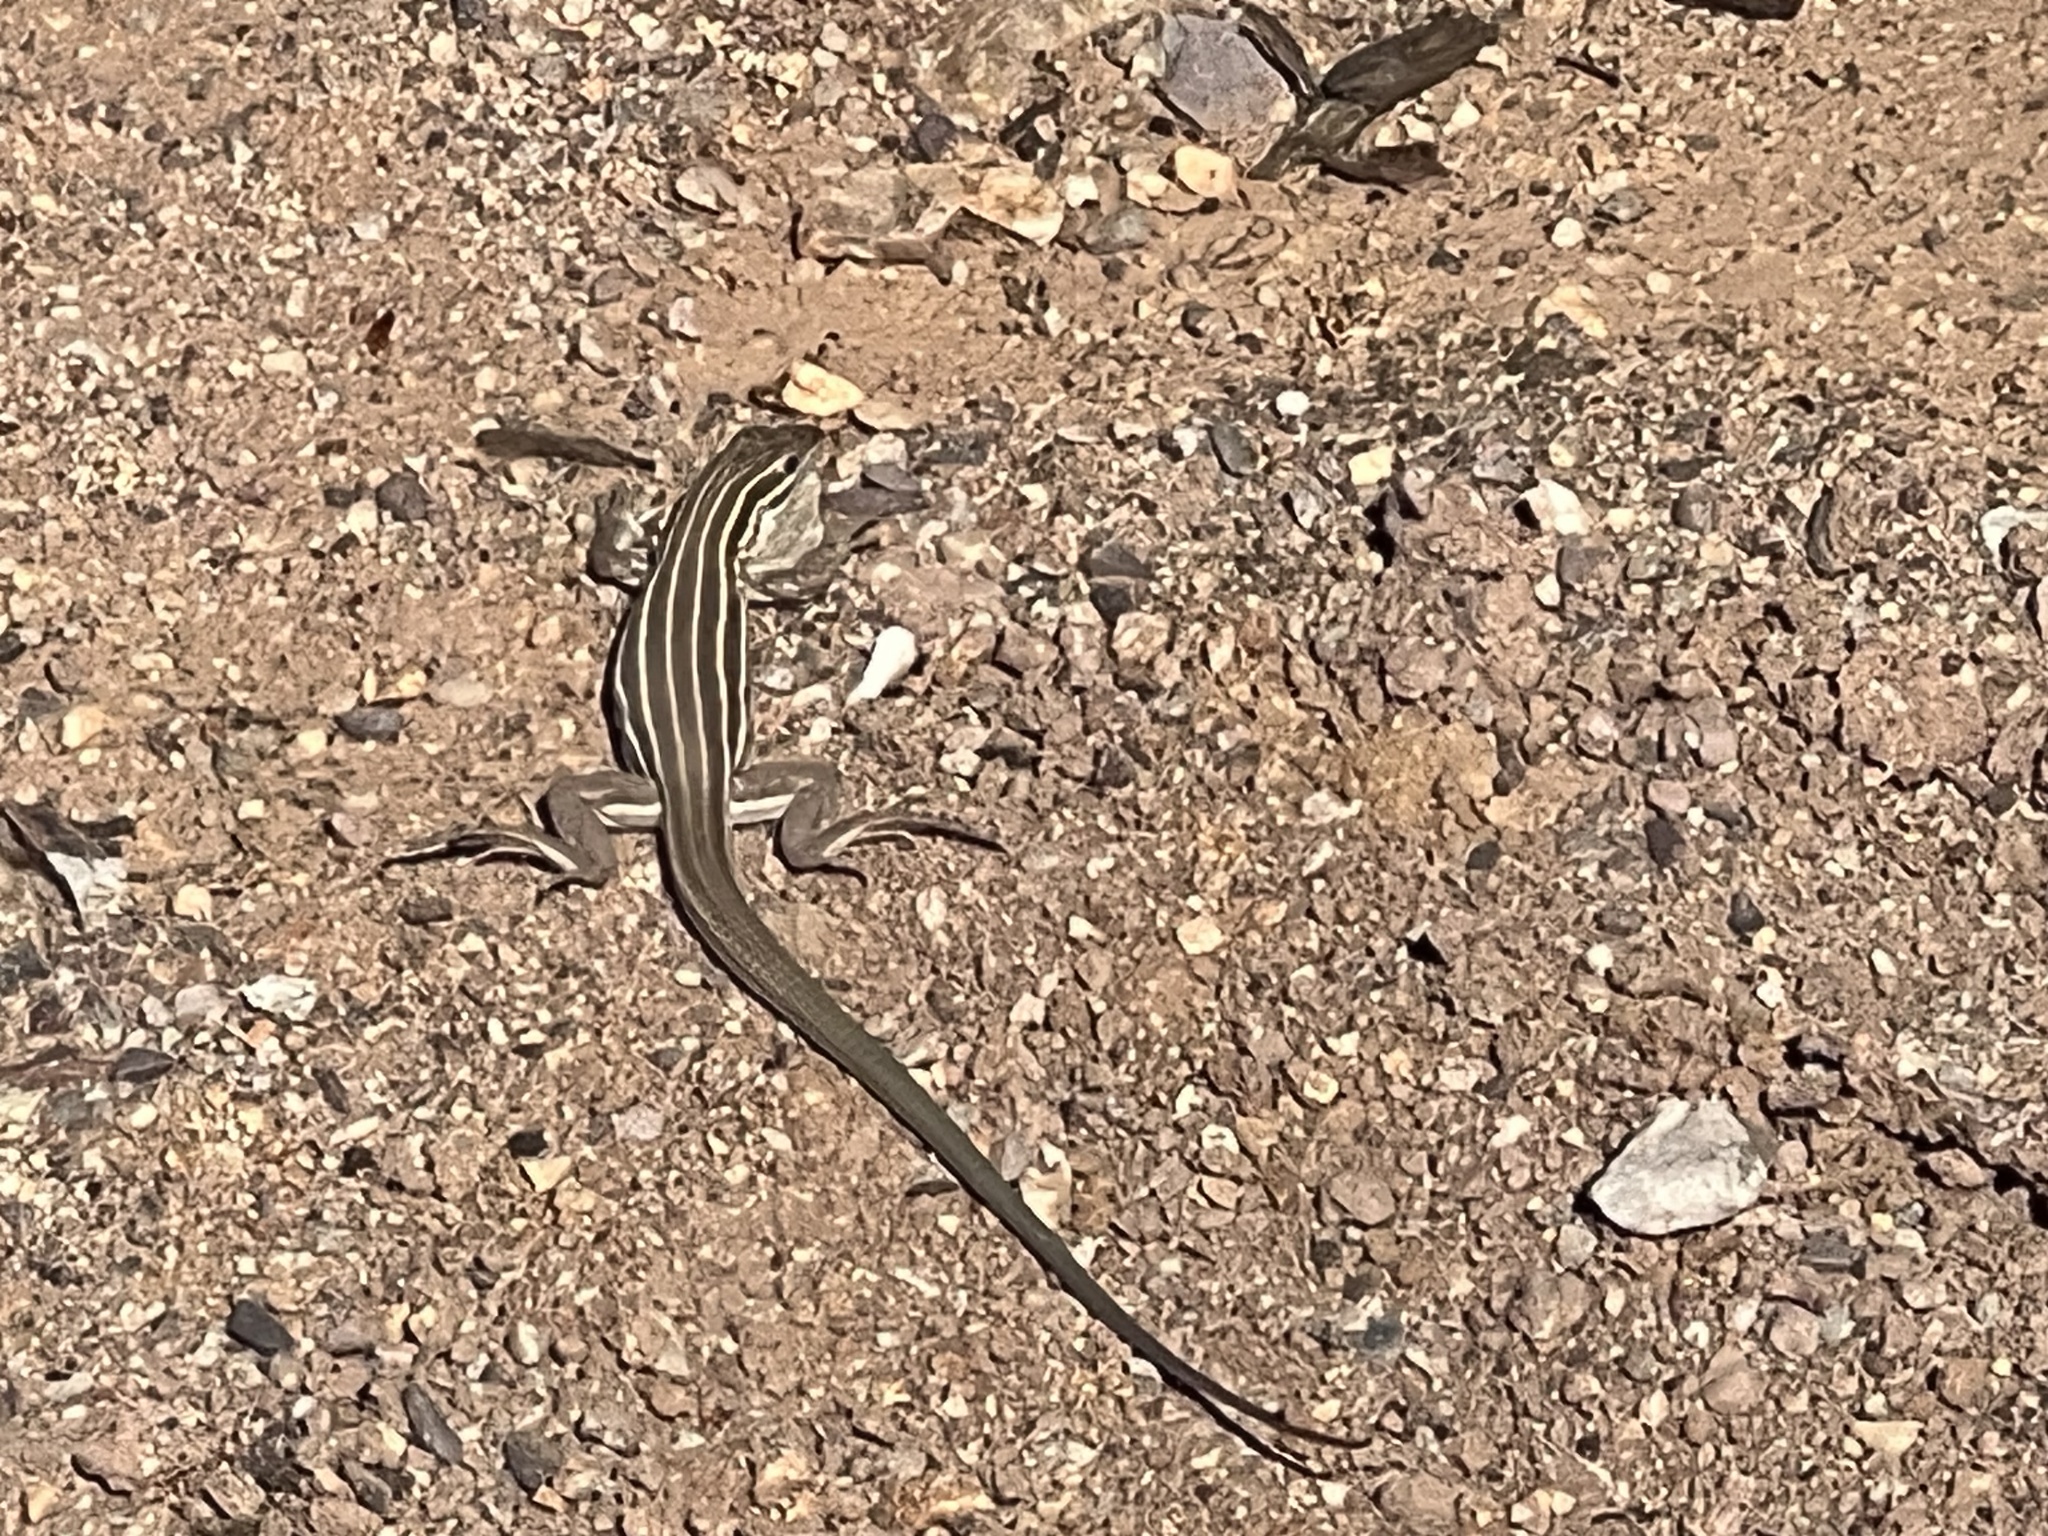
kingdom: Animalia
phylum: Chordata
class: Squamata
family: Teiidae
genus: Aspidoscelis
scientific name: Aspidoscelis uniparens
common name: Desert grassland whiptail
